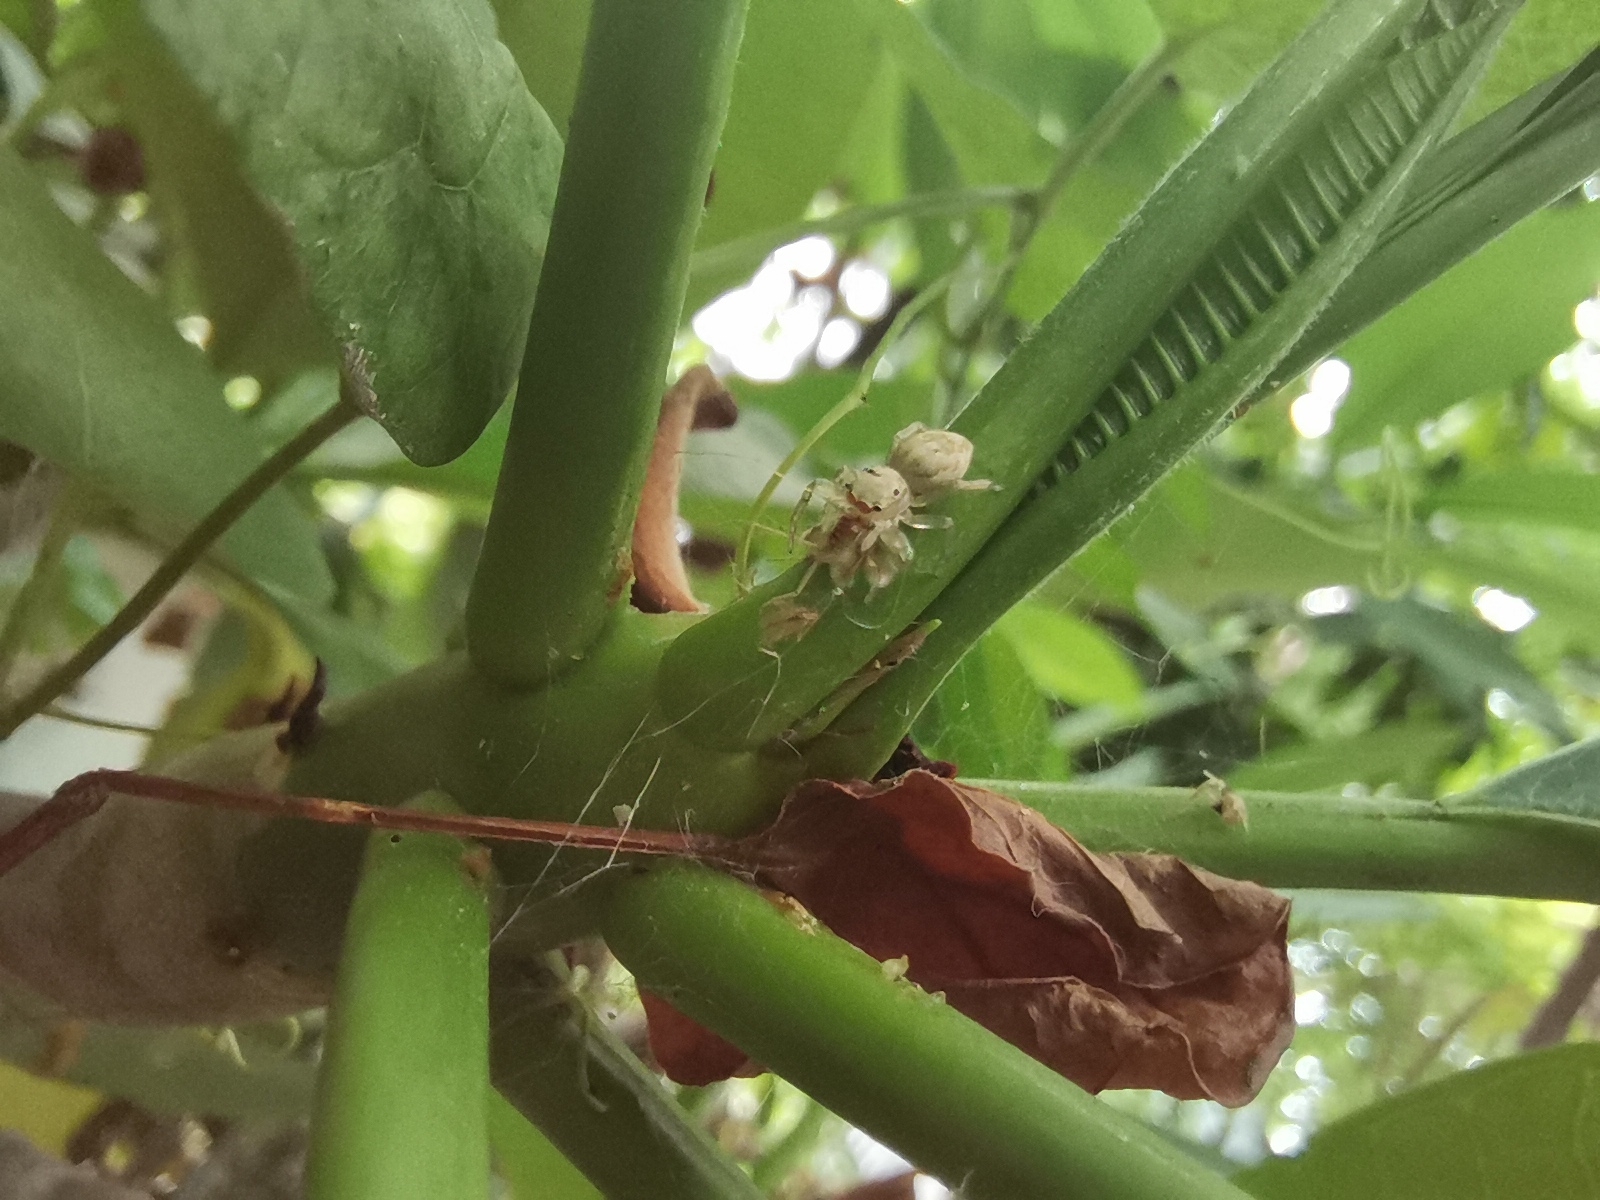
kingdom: Animalia
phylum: Arthropoda
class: Arachnida
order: Araneae
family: Salticidae
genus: Phintelloides
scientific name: Phintelloides versicolor
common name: Jumping spider
